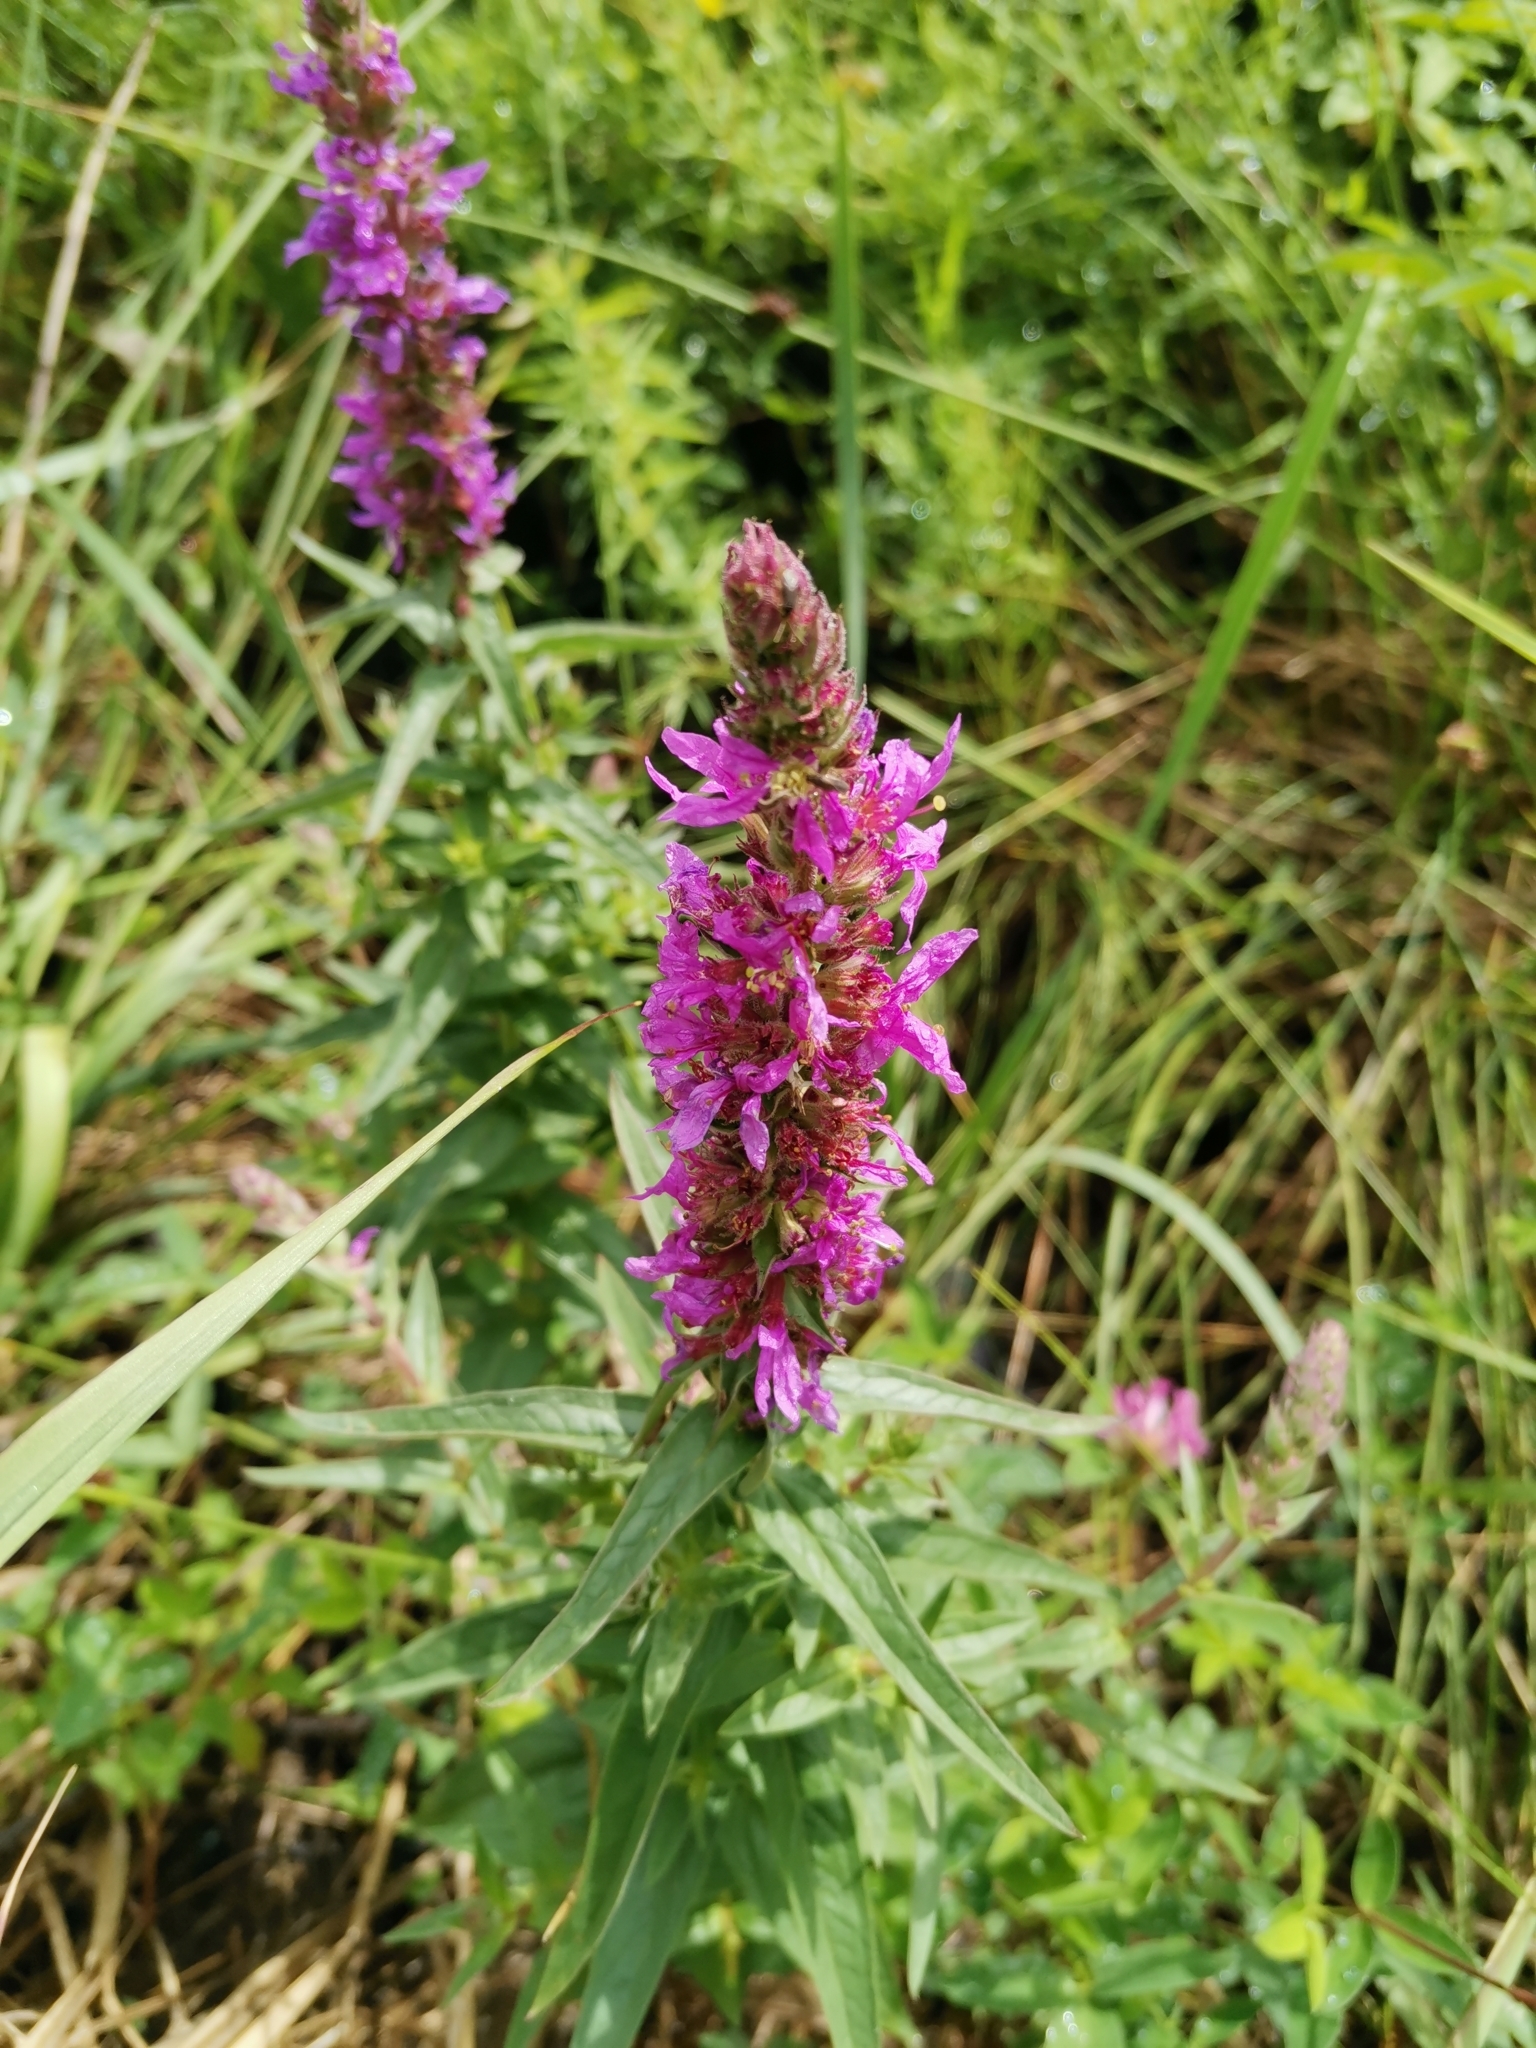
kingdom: Plantae
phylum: Tracheophyta
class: Magnoliopsida
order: Myrtales
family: Lythraceae
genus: Lythrum
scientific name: Lythrum salicaria
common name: Purple loosestrife
